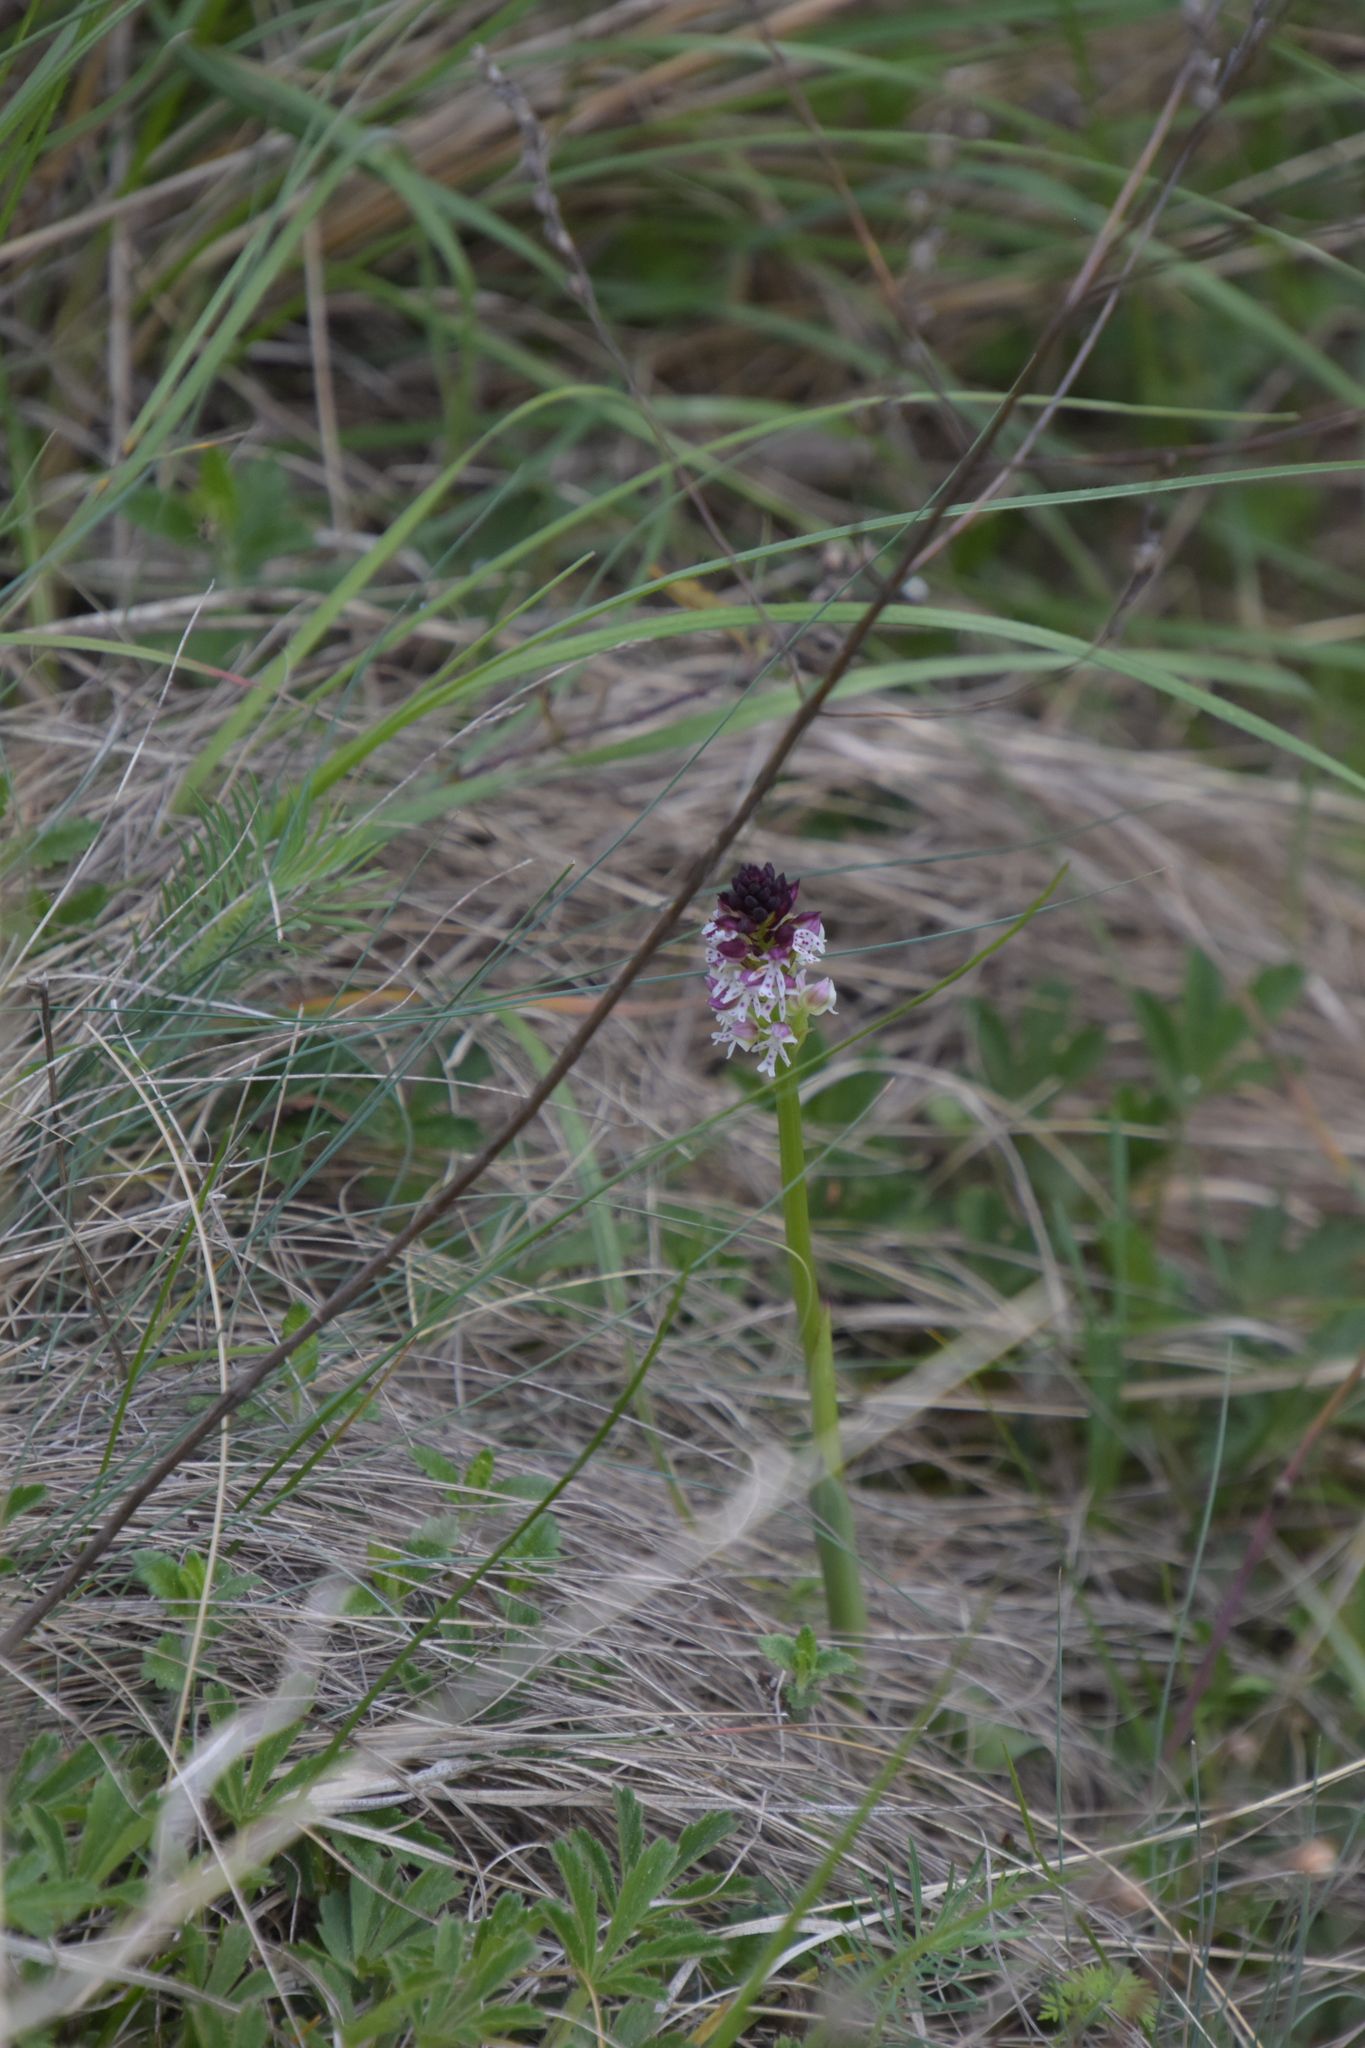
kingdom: Plantae
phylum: Tracheophyta
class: Liliopsida
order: Asparagales
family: Orchidaceae
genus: Neotinea
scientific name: Neotinea ustulata
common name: Burnt orchid
